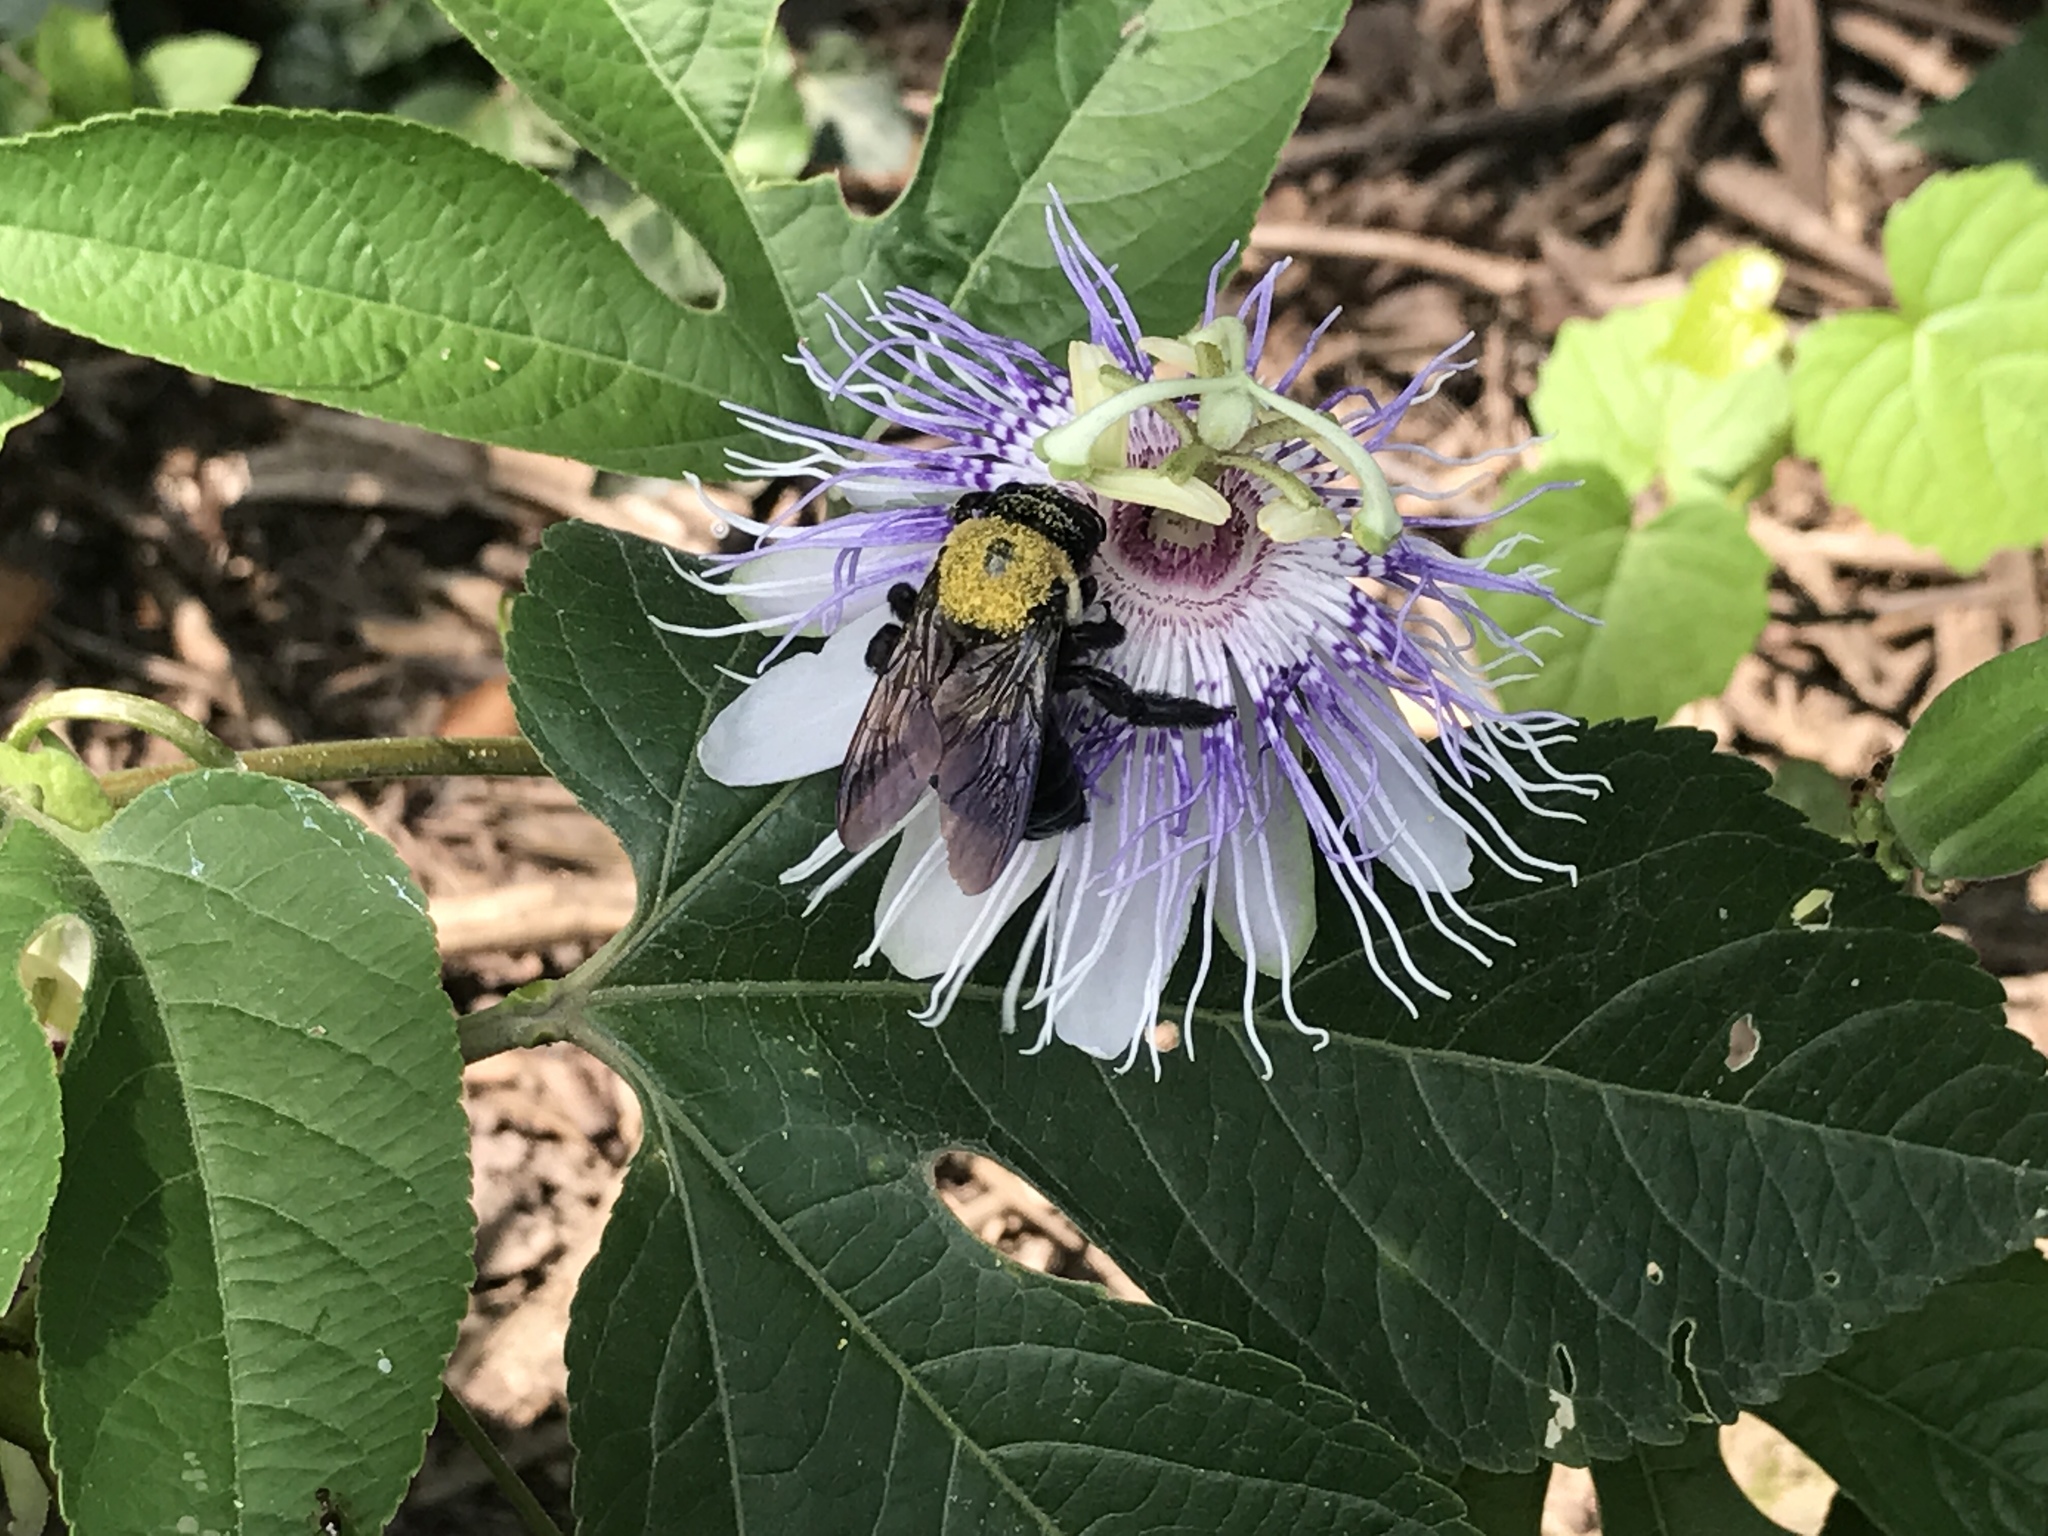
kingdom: Plantae
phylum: Tracheophyta
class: Magnoliopsida
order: Malpighiales
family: Passifloraceae
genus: Passiflora
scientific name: Passiflora incarnata
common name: Apricot-vine
